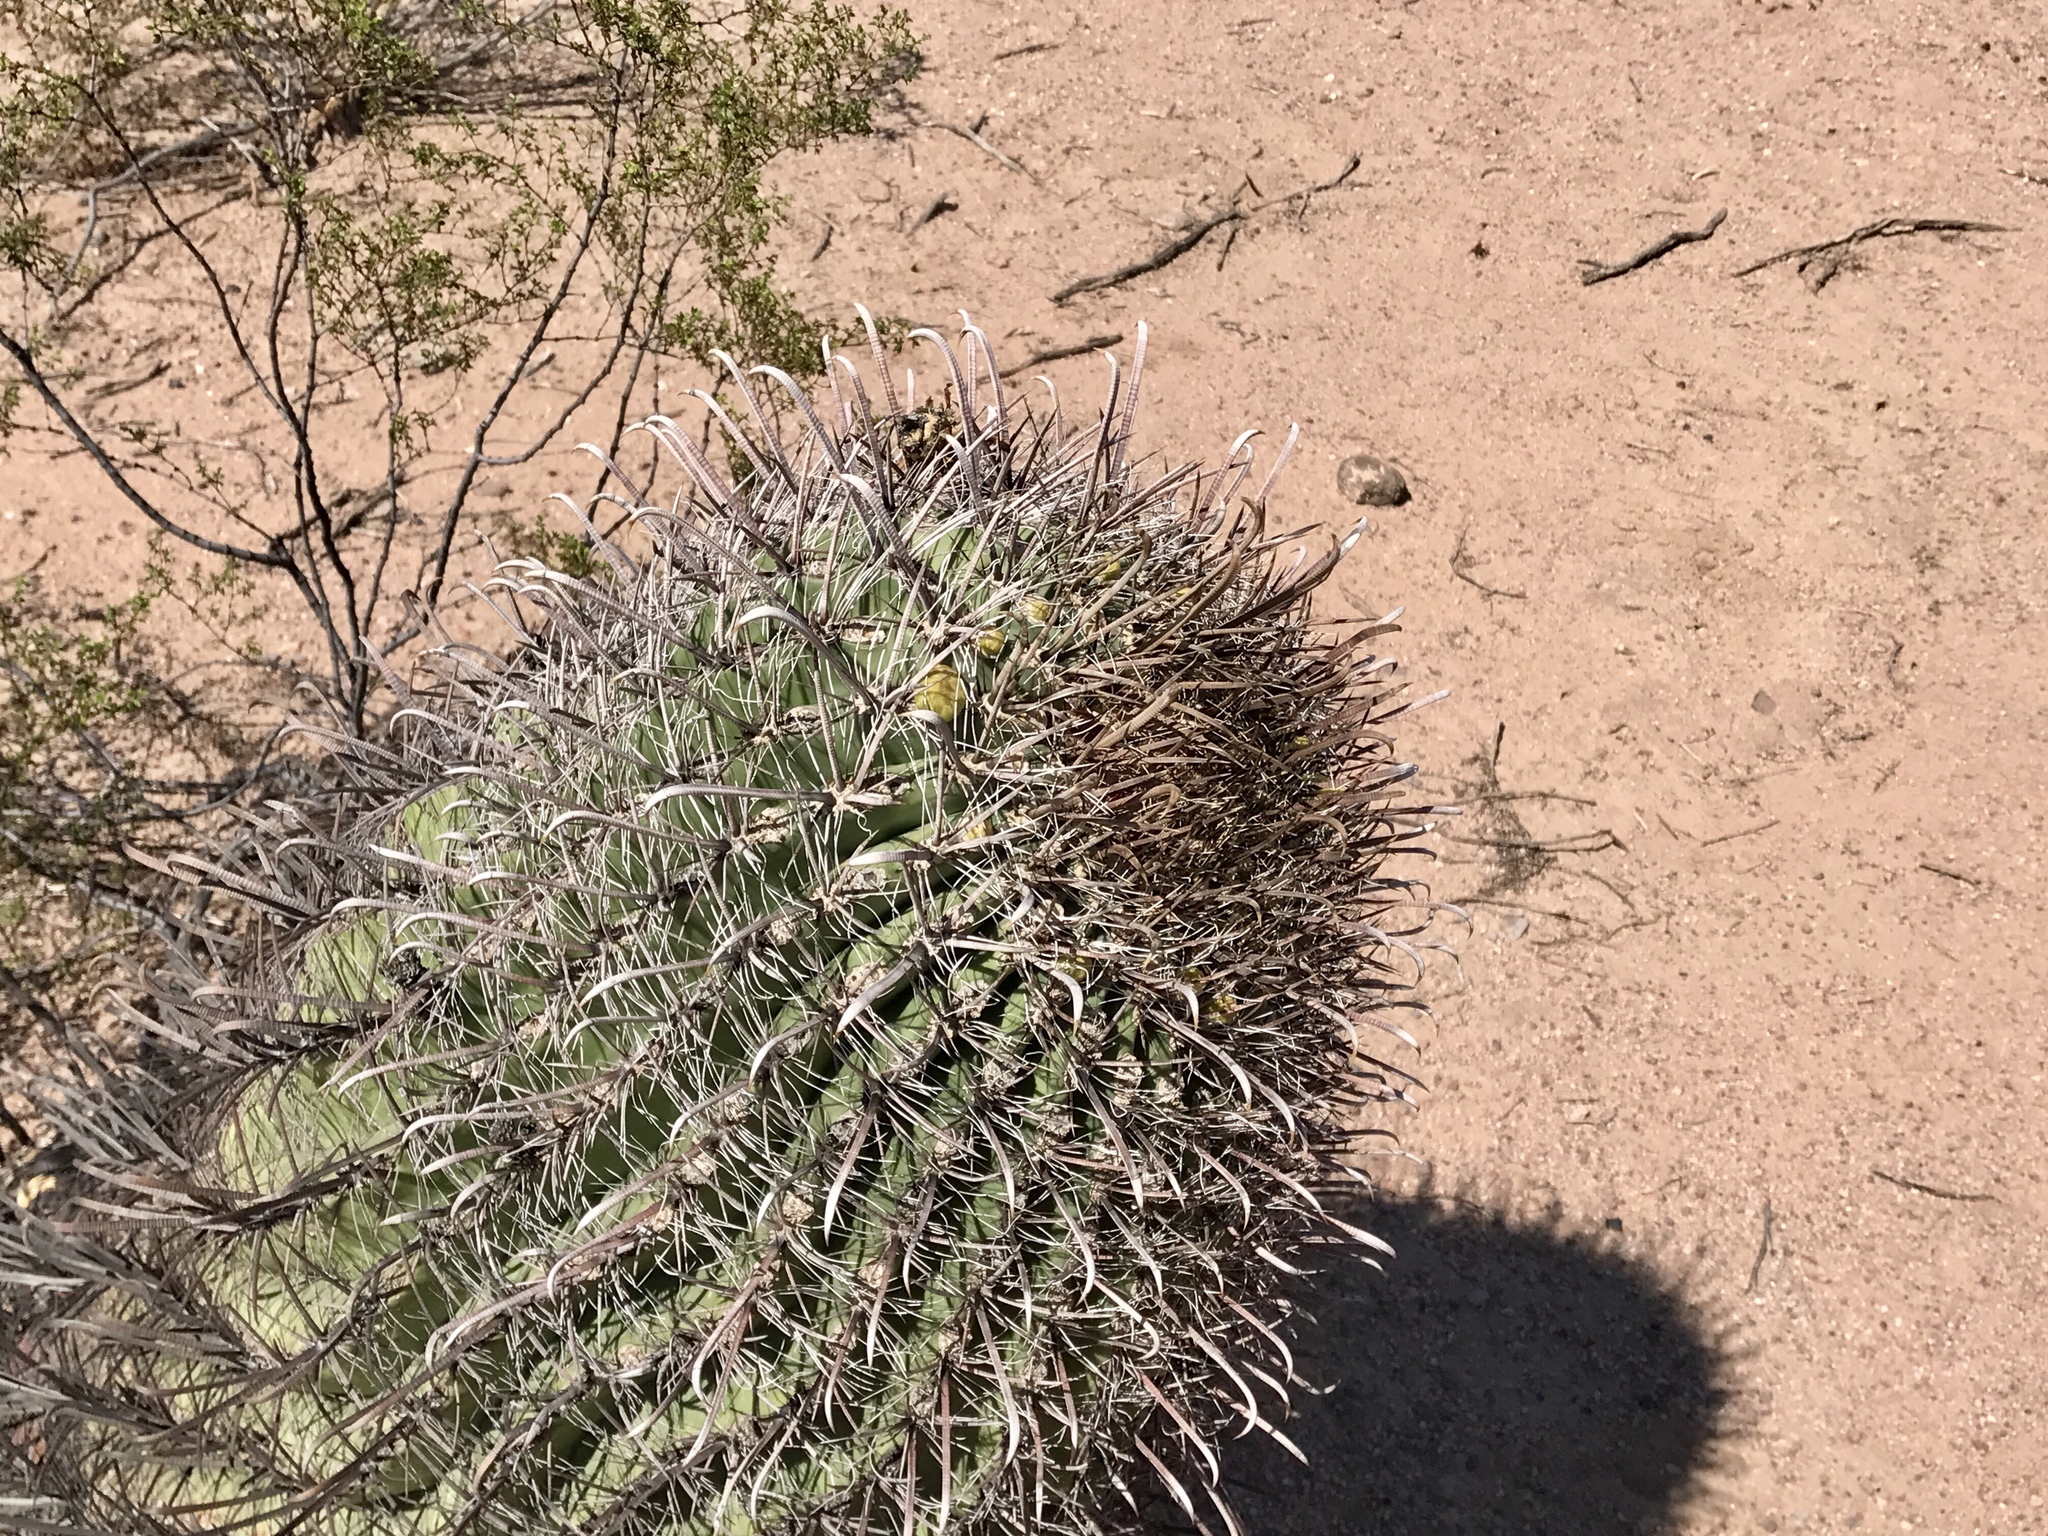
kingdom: Plantae
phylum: Tracheophyta
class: Magnoliopsida
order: Caryophyllales
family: Cactaceae
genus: Ferocactus
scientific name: Ferocactus wislizeni
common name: Candy barrel cactus
